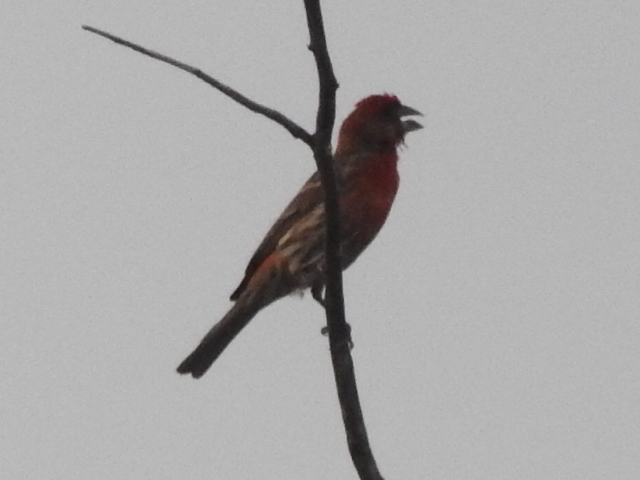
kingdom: Animalia
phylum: Chordata
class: Aves
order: Passeriformes
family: Fringillidae
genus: Haemorhous
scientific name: Haemorhous mexicanus
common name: House finch
